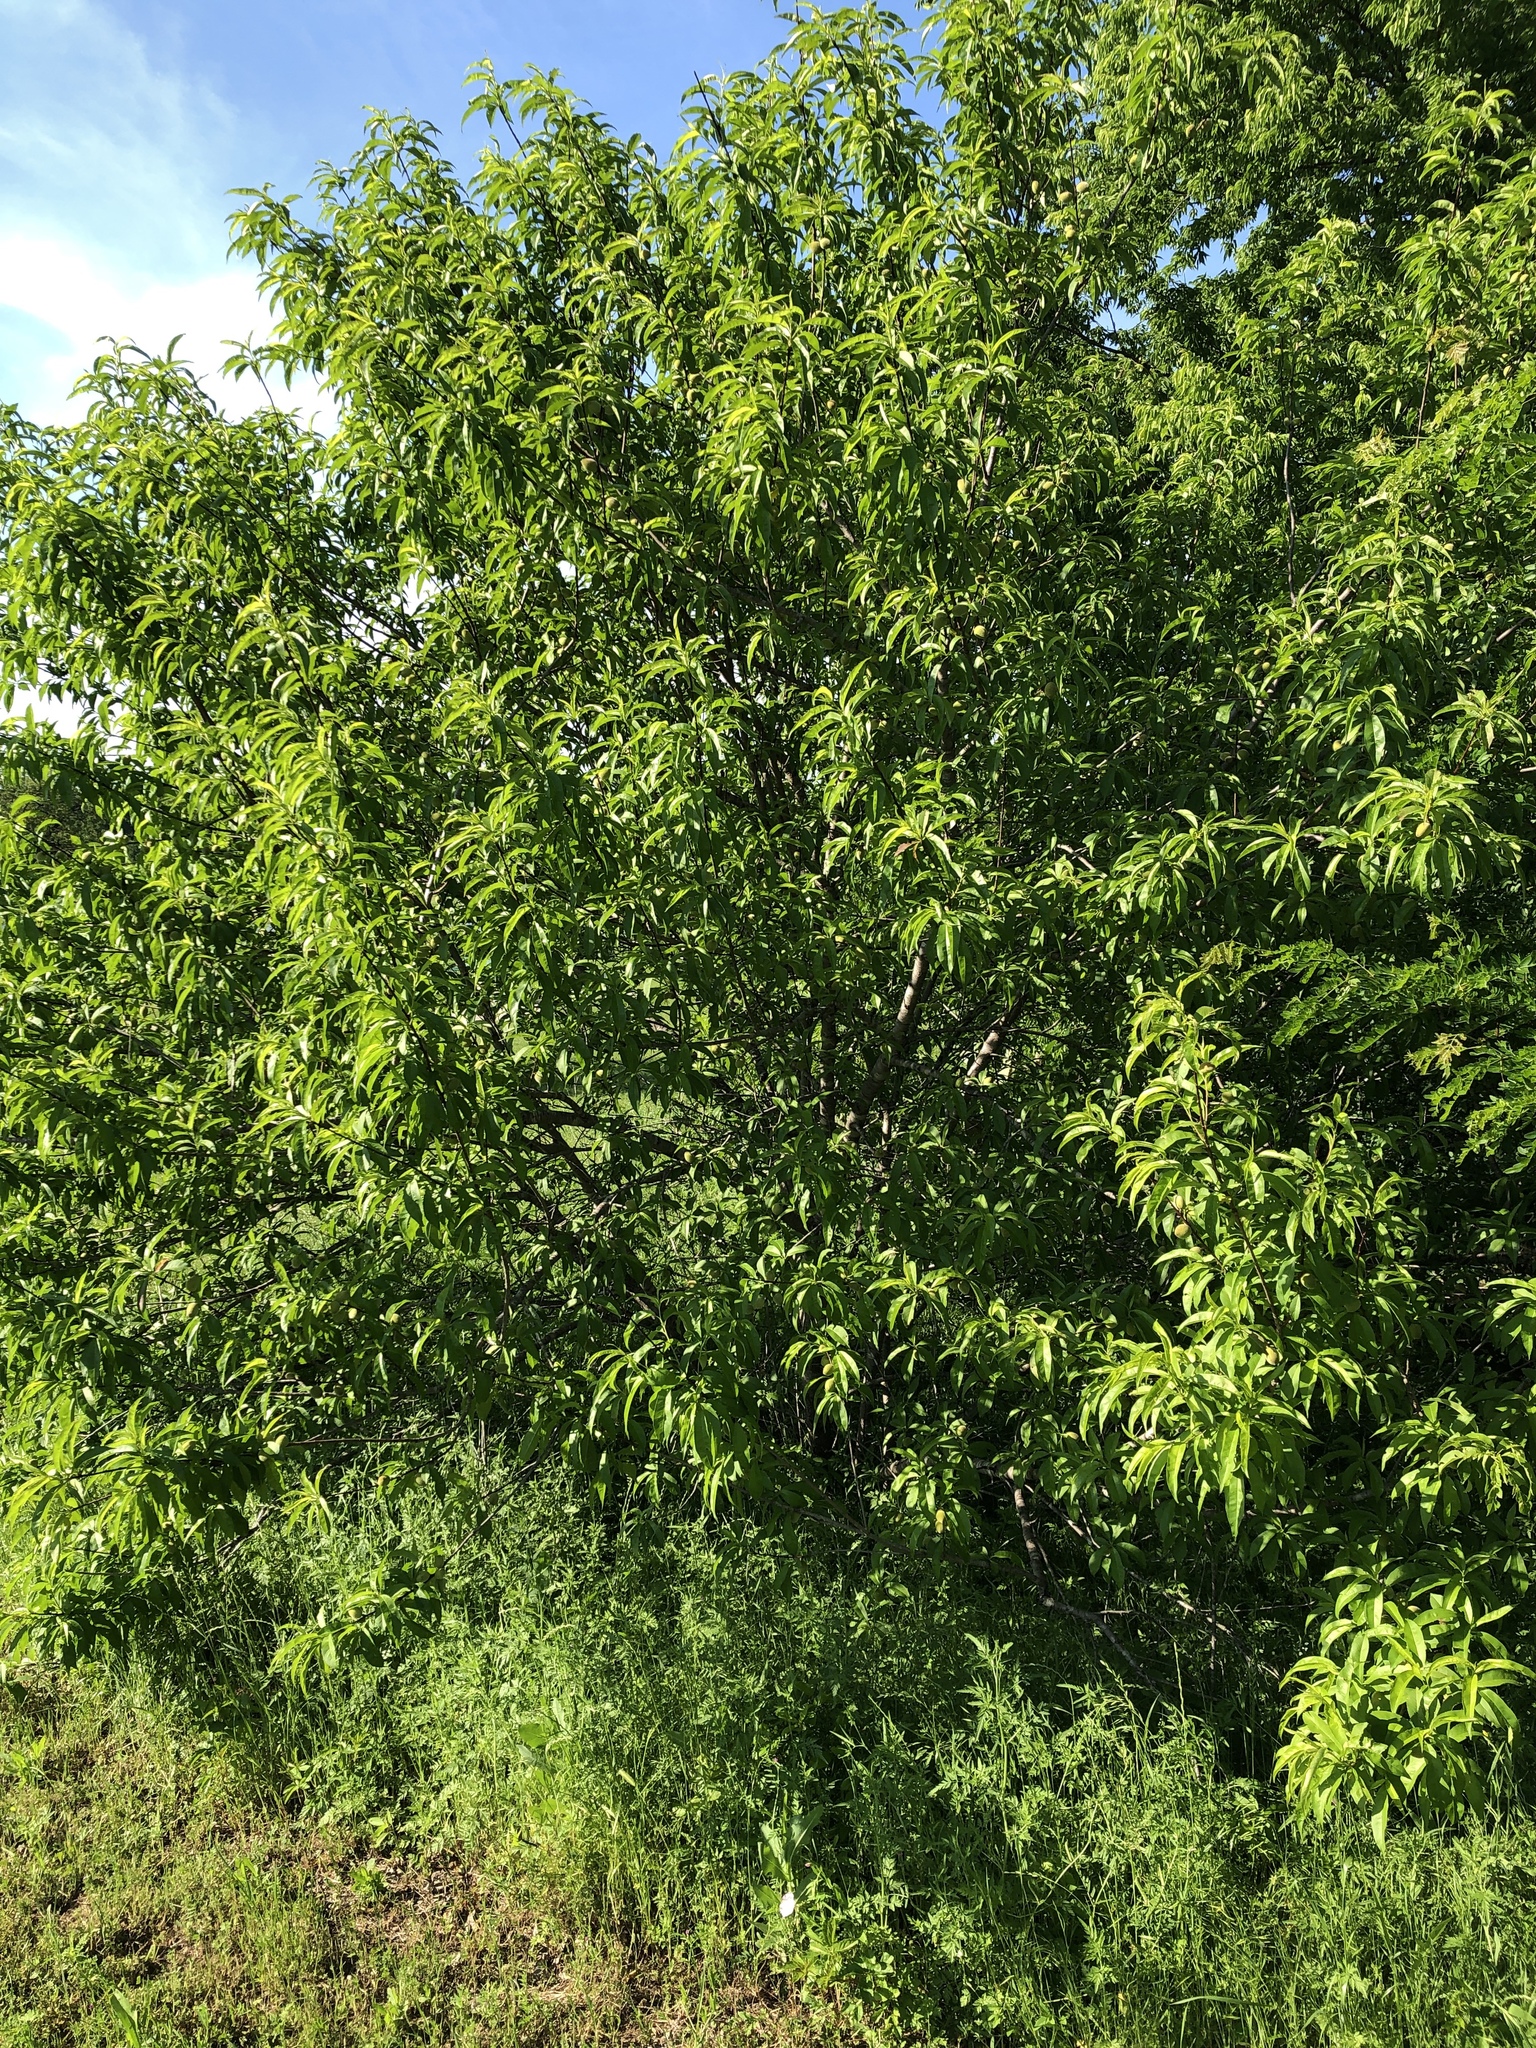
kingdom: Plantae
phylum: Tracheophyta
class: Magnoliopsida
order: Rosales
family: Rosaceae
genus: Prunus
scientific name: Prunus persica
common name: Peach
